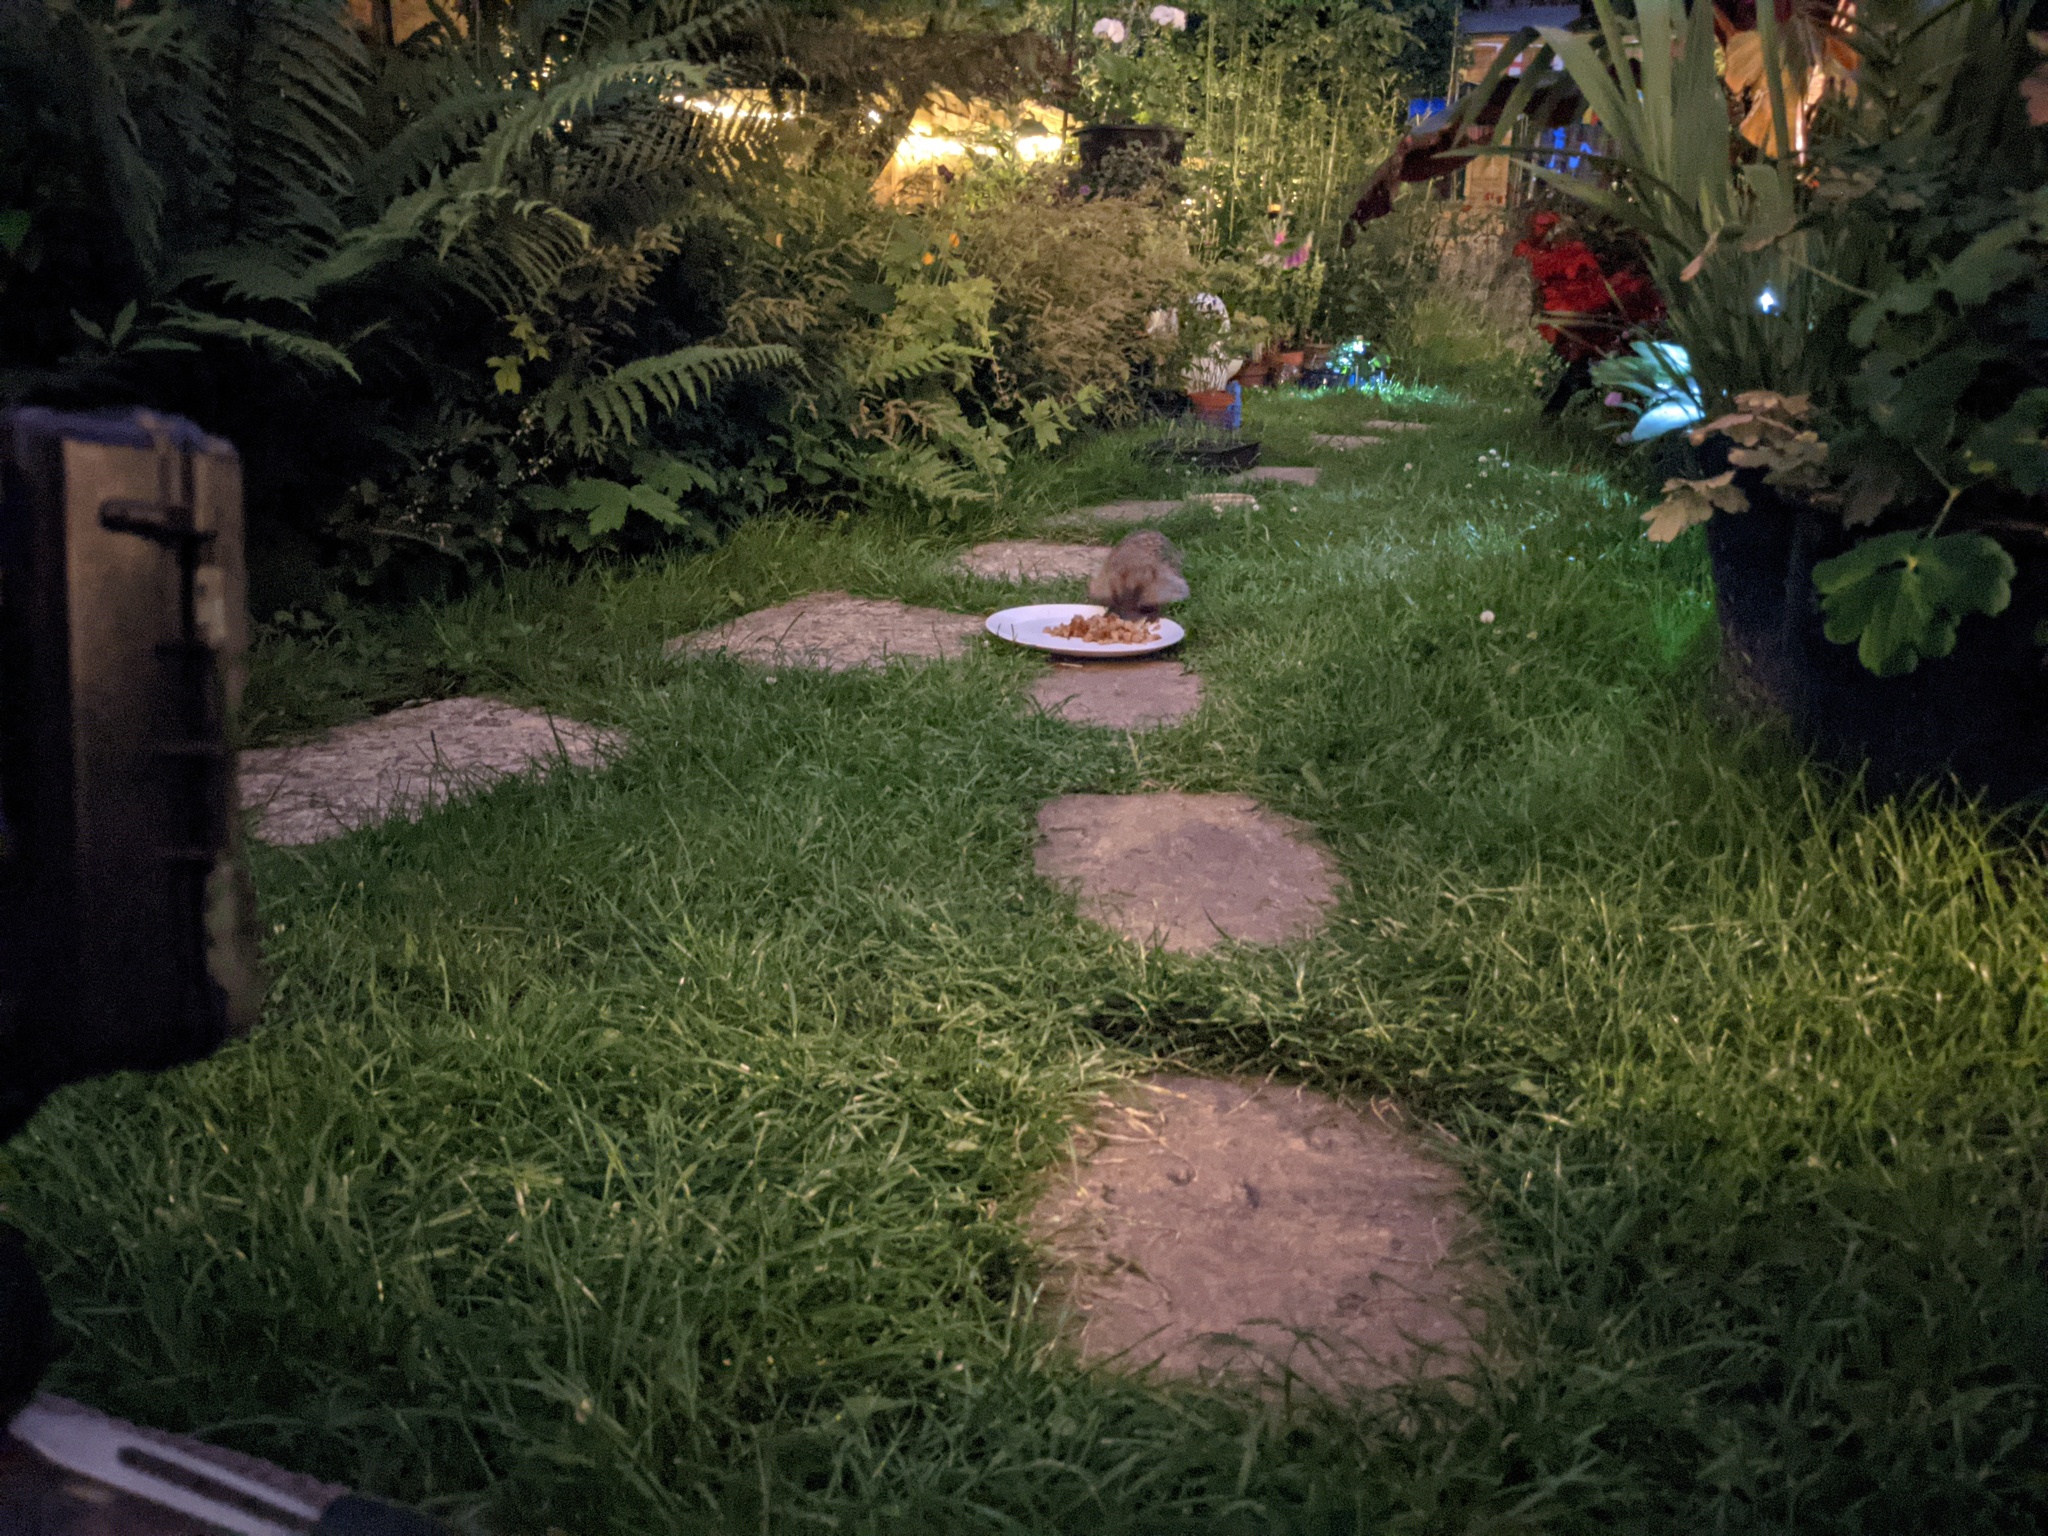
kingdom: Animalia
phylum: Chordata
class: Mammalia
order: Erinaceomorpha
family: Erinaceidae
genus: Erinaceus
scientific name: Erinaceus europaeus
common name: West european hedgehog
